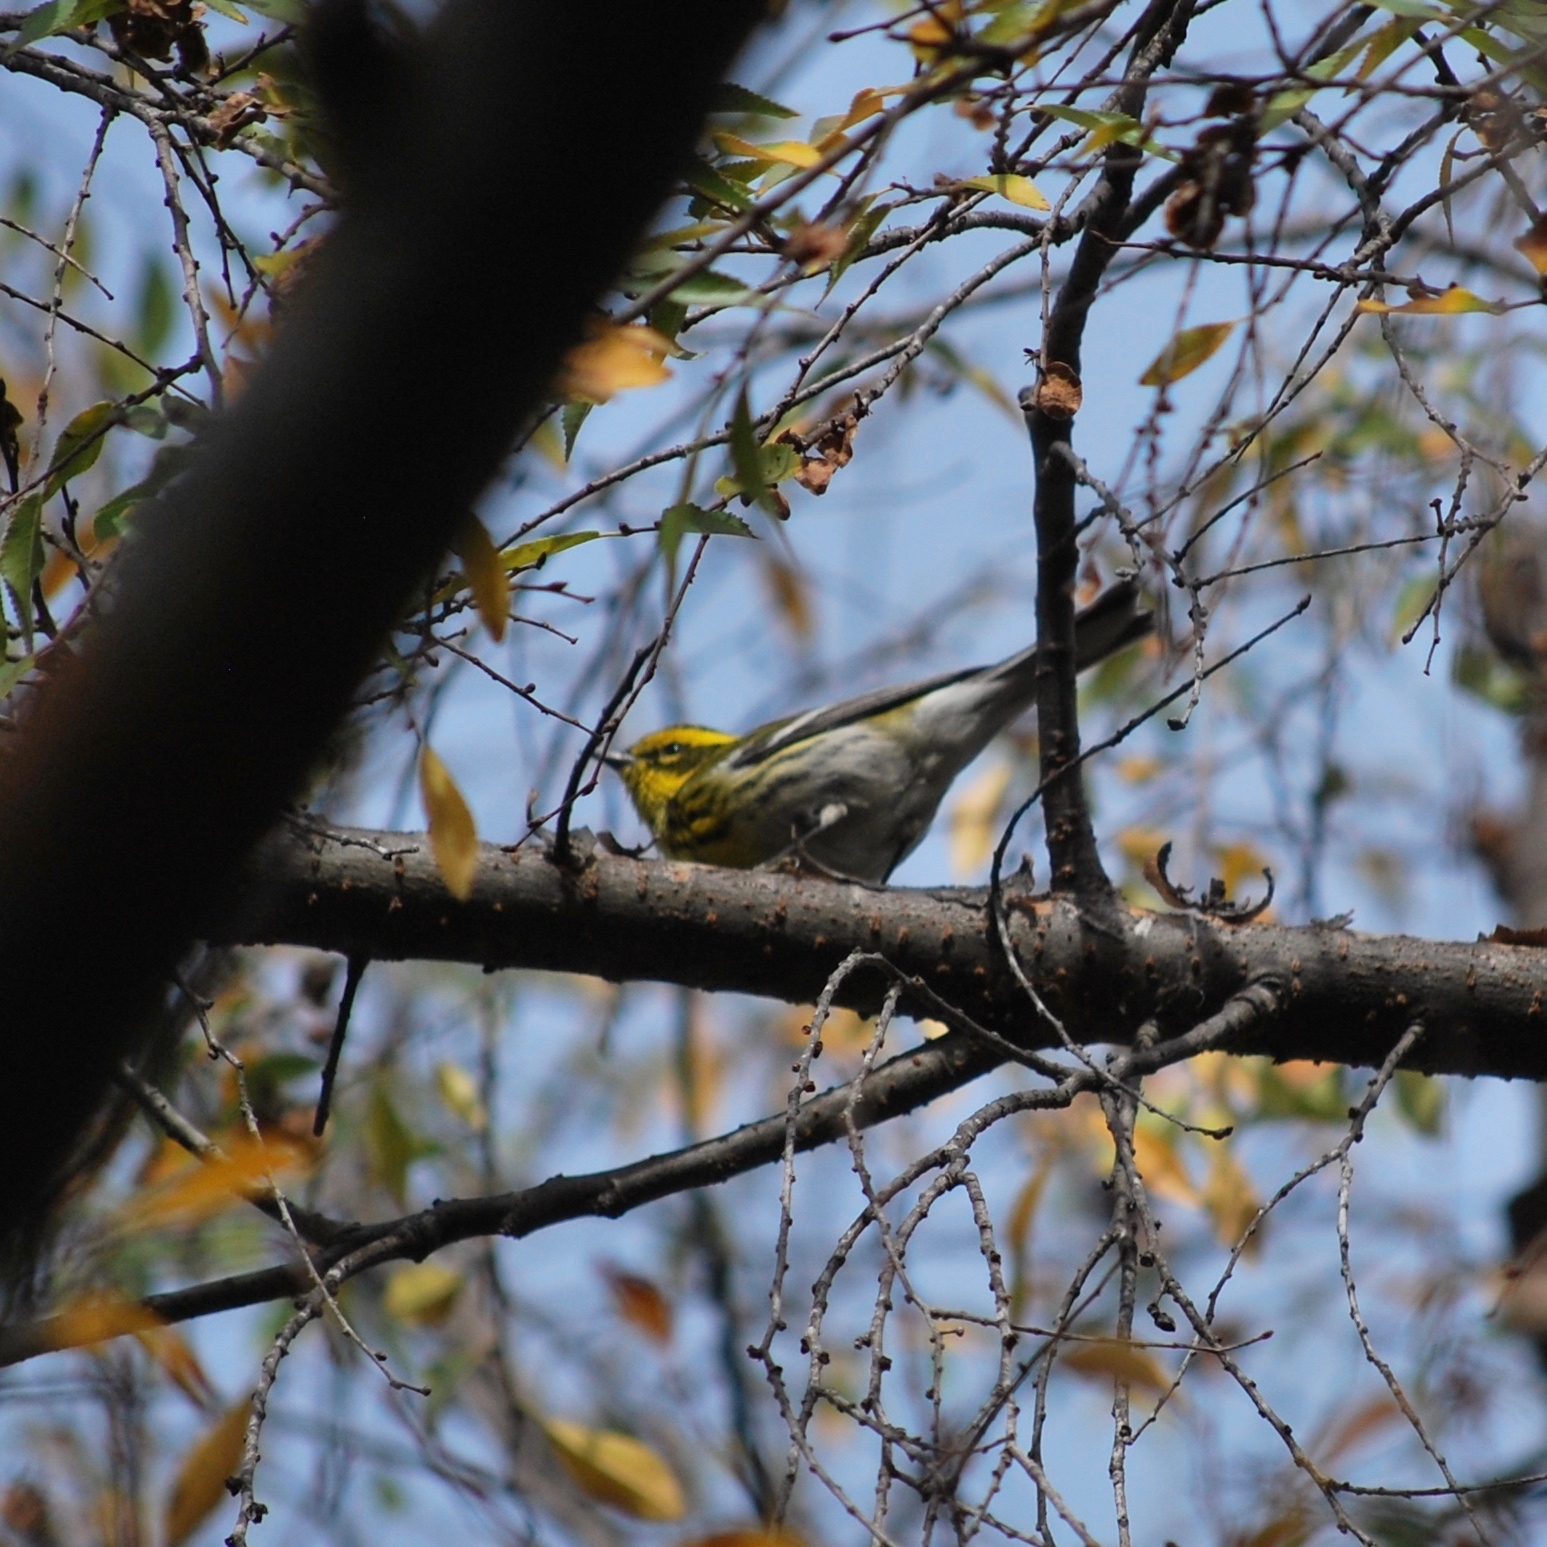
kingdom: Animalia
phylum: Chordata
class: Aves
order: Passeriformes
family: Parulidae
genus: Setophaga
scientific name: Setophaga townsendi
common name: Townsend's warbler
